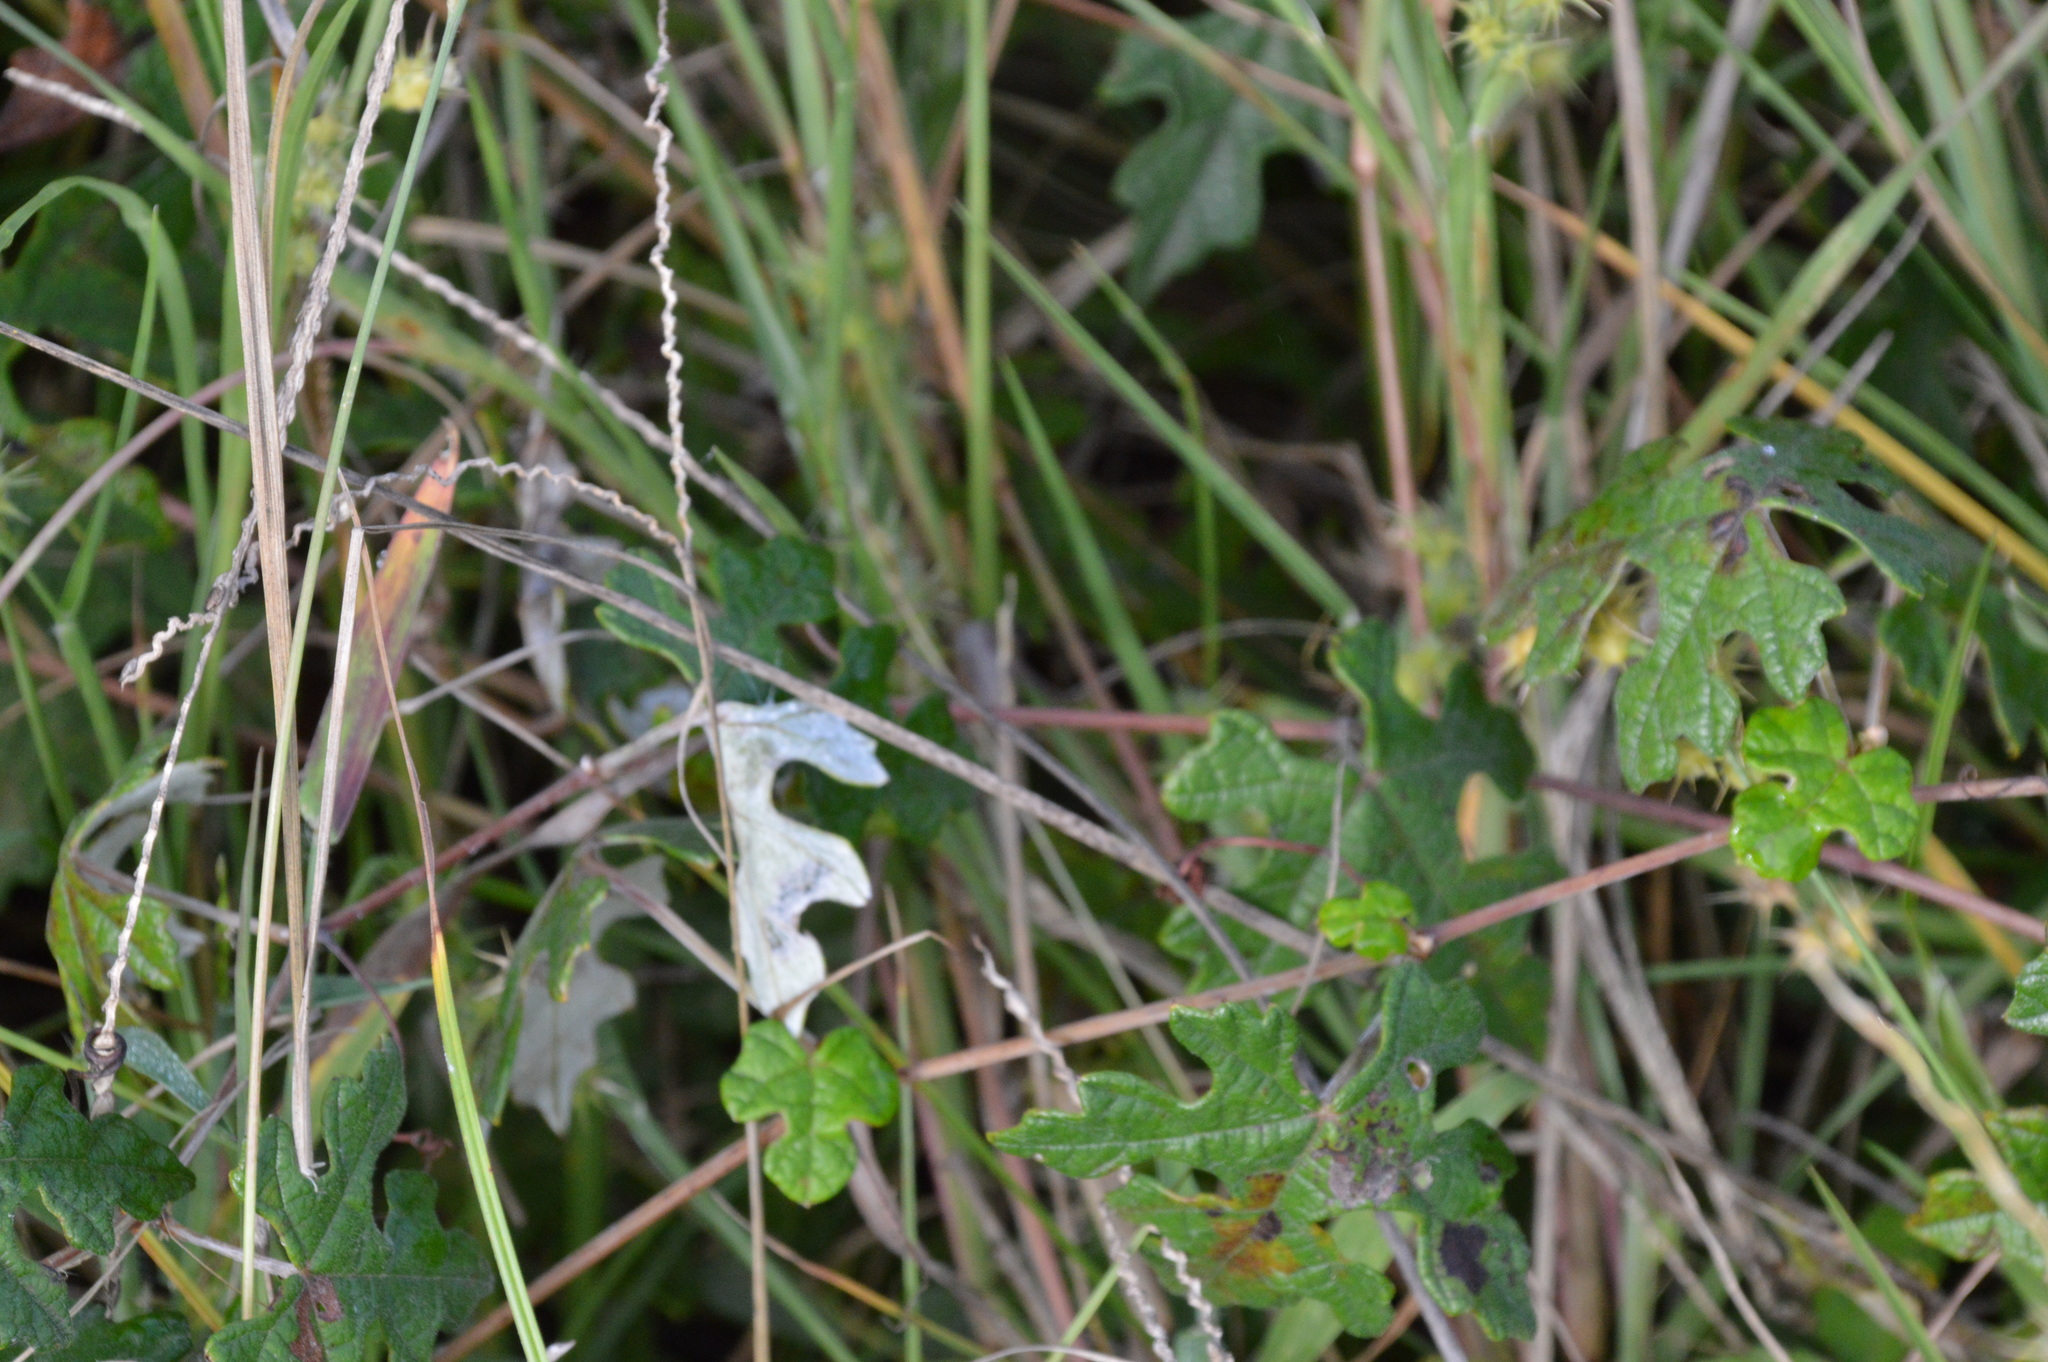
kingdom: Plantae
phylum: Tracheophyta
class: Magnoliopsida
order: Vitales
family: Vitaceae
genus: Vitis
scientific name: Vitis mustangensis
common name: Mustang grape
